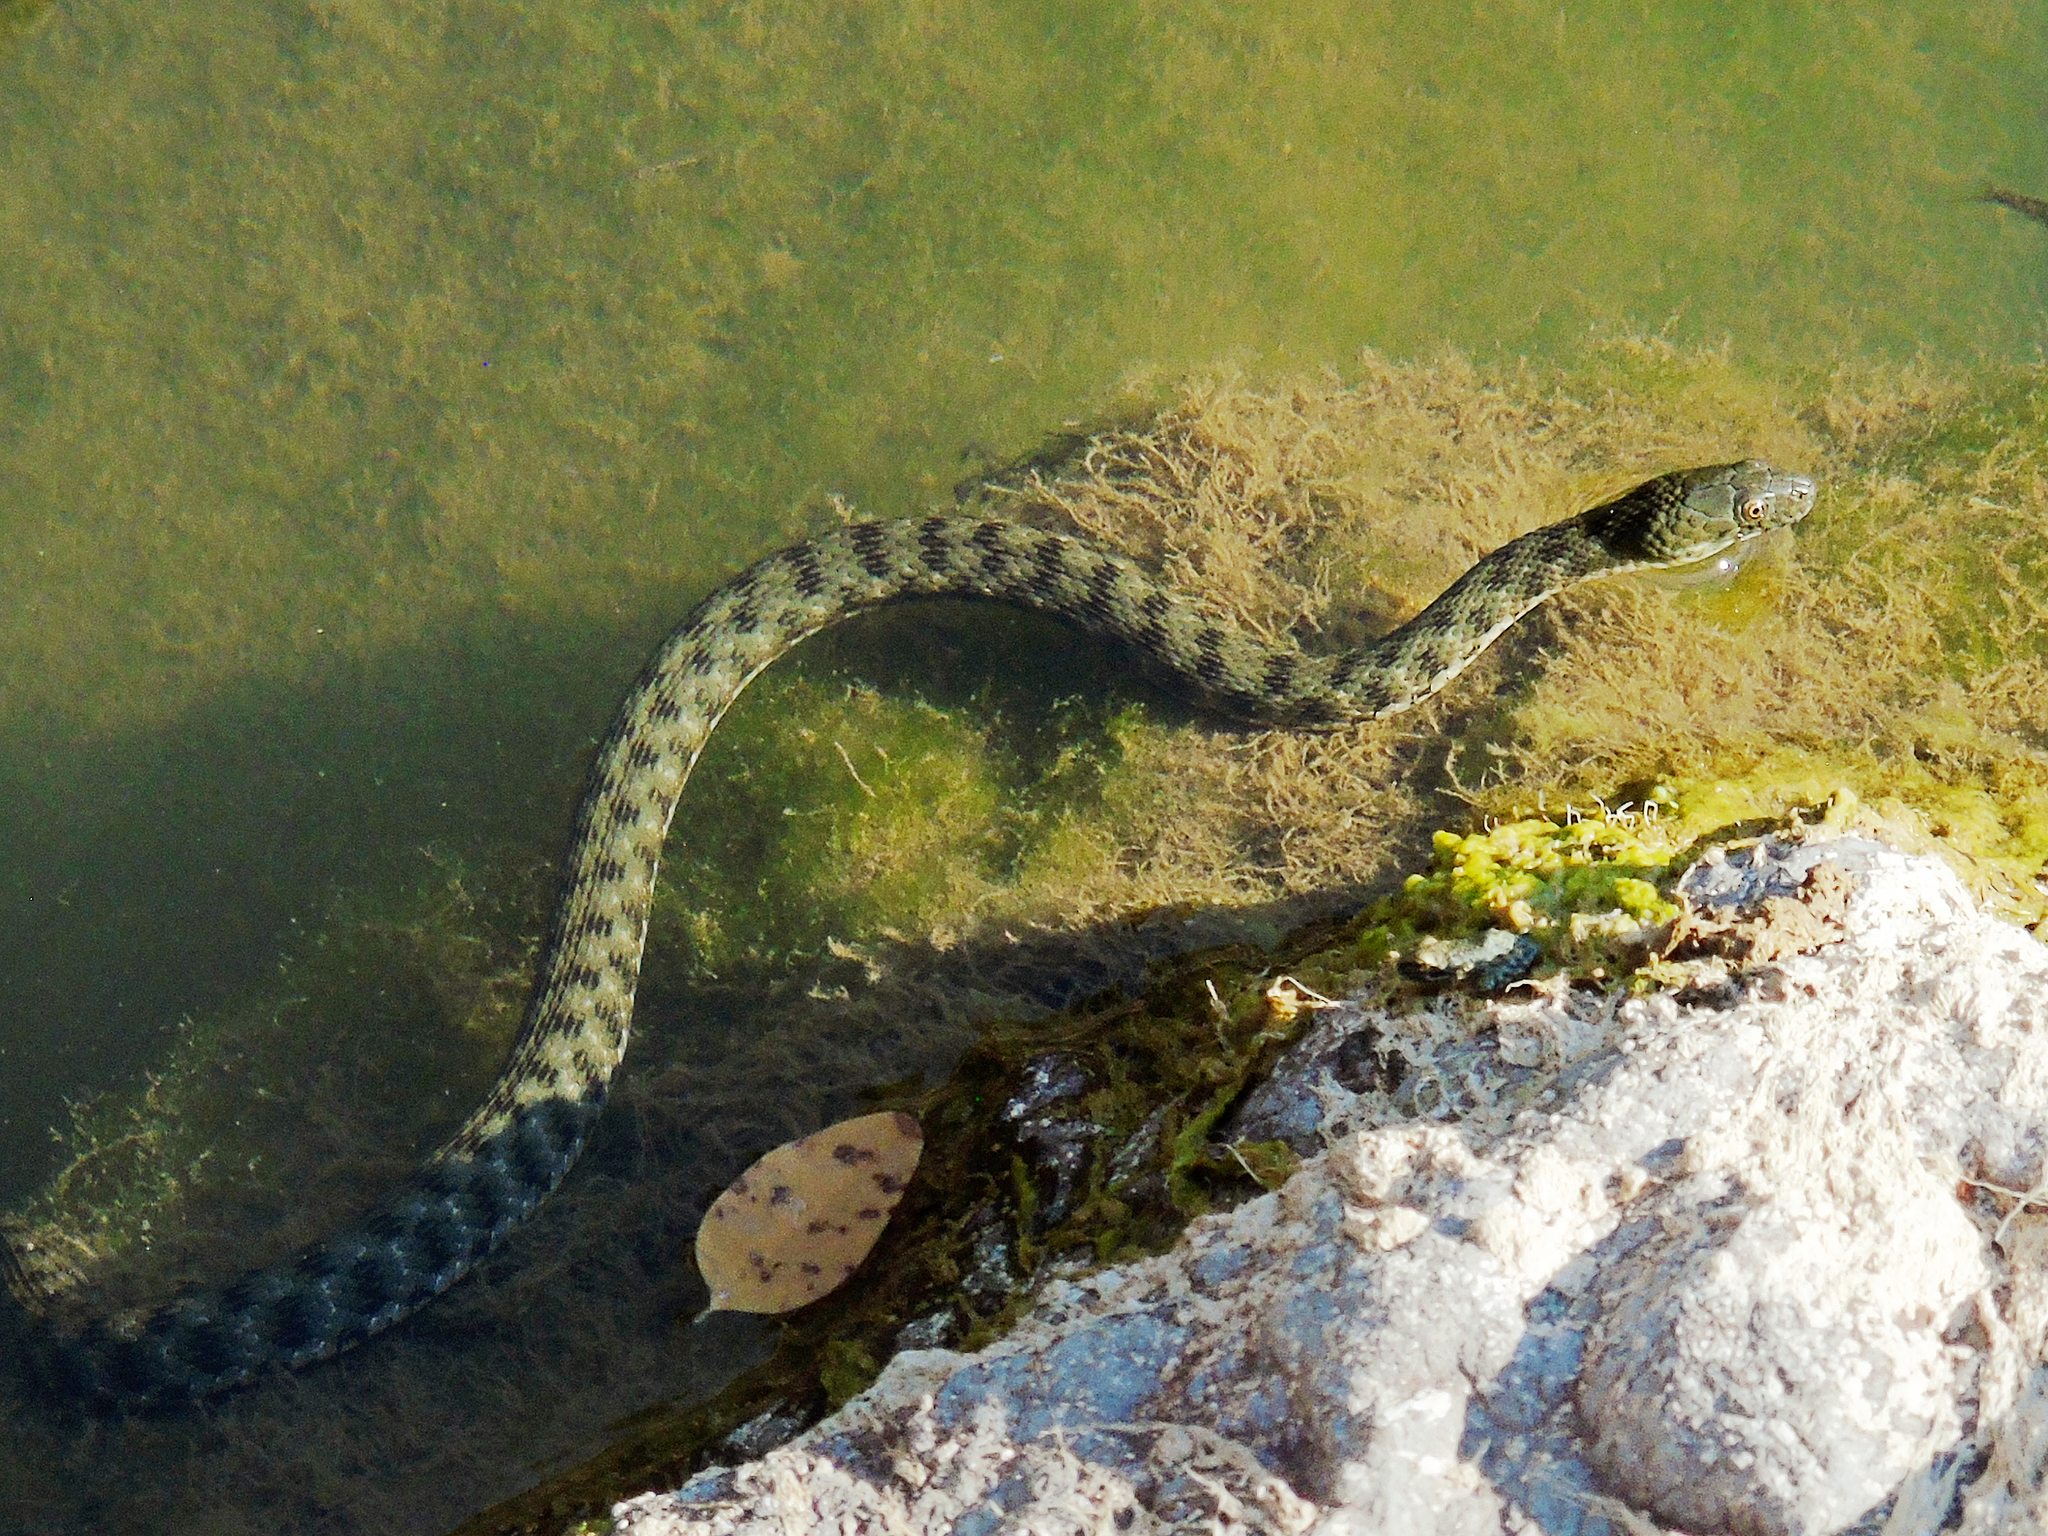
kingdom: Animalia
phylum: Chordata
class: Squamata
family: Colubridae
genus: Natrix
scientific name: Natrix tessellata
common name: Dice snake
